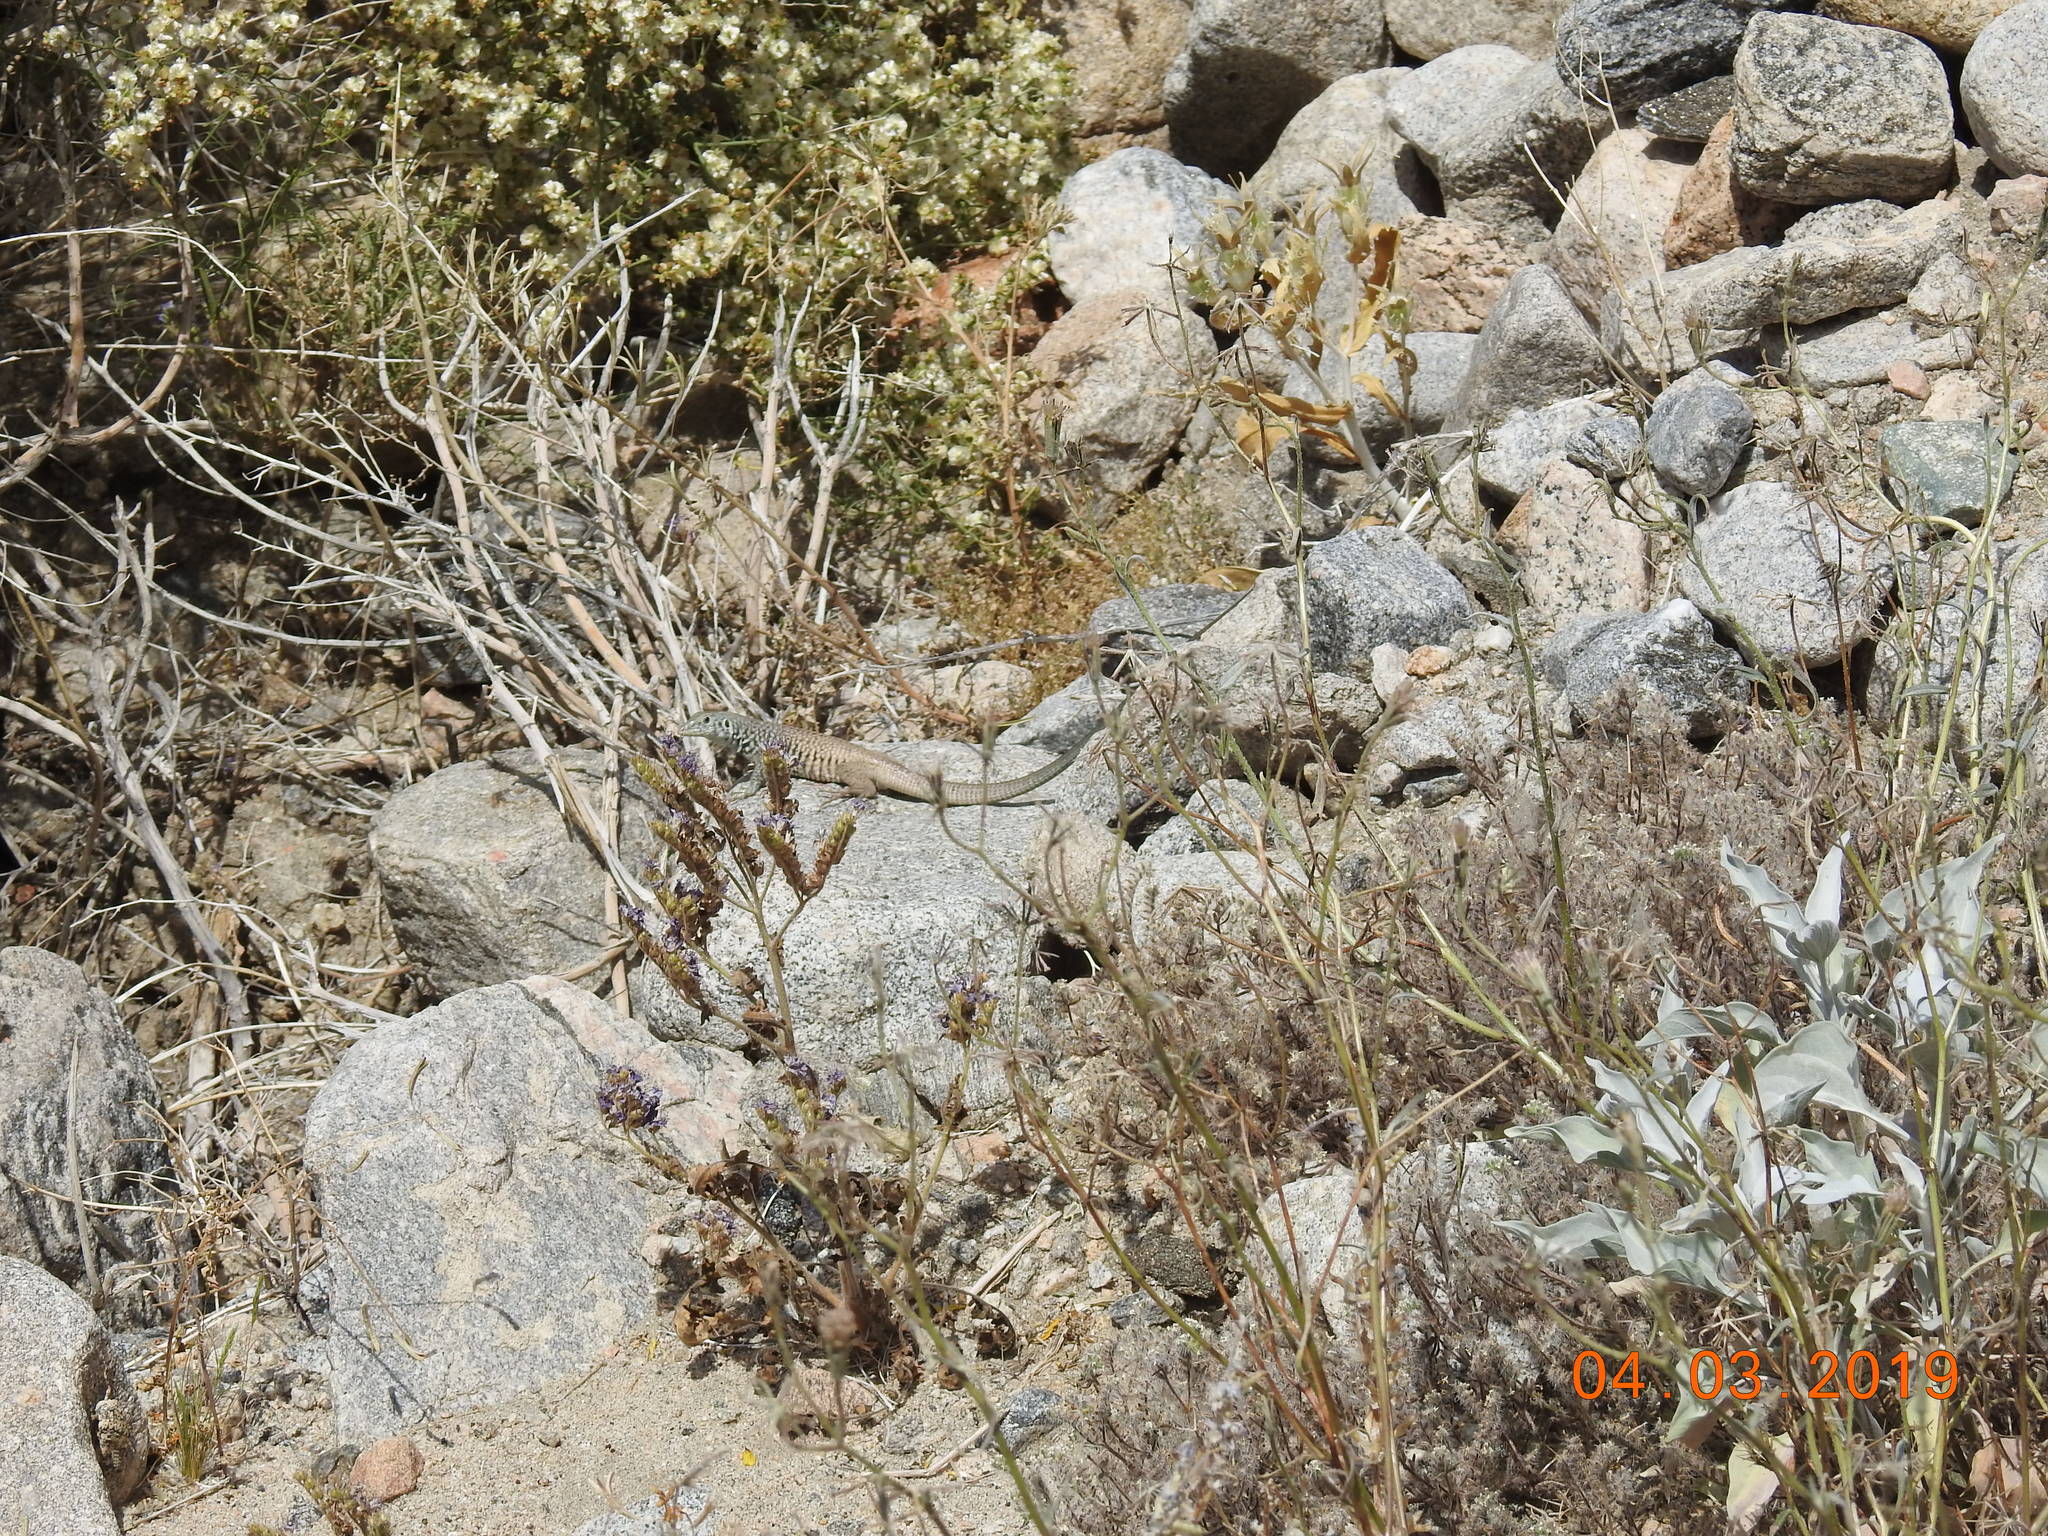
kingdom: Animalia
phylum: Chordata
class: Squamata
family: Teiidae
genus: Aspidoscelis
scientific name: Aspidoscelis tigris
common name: Tiger whiptail
